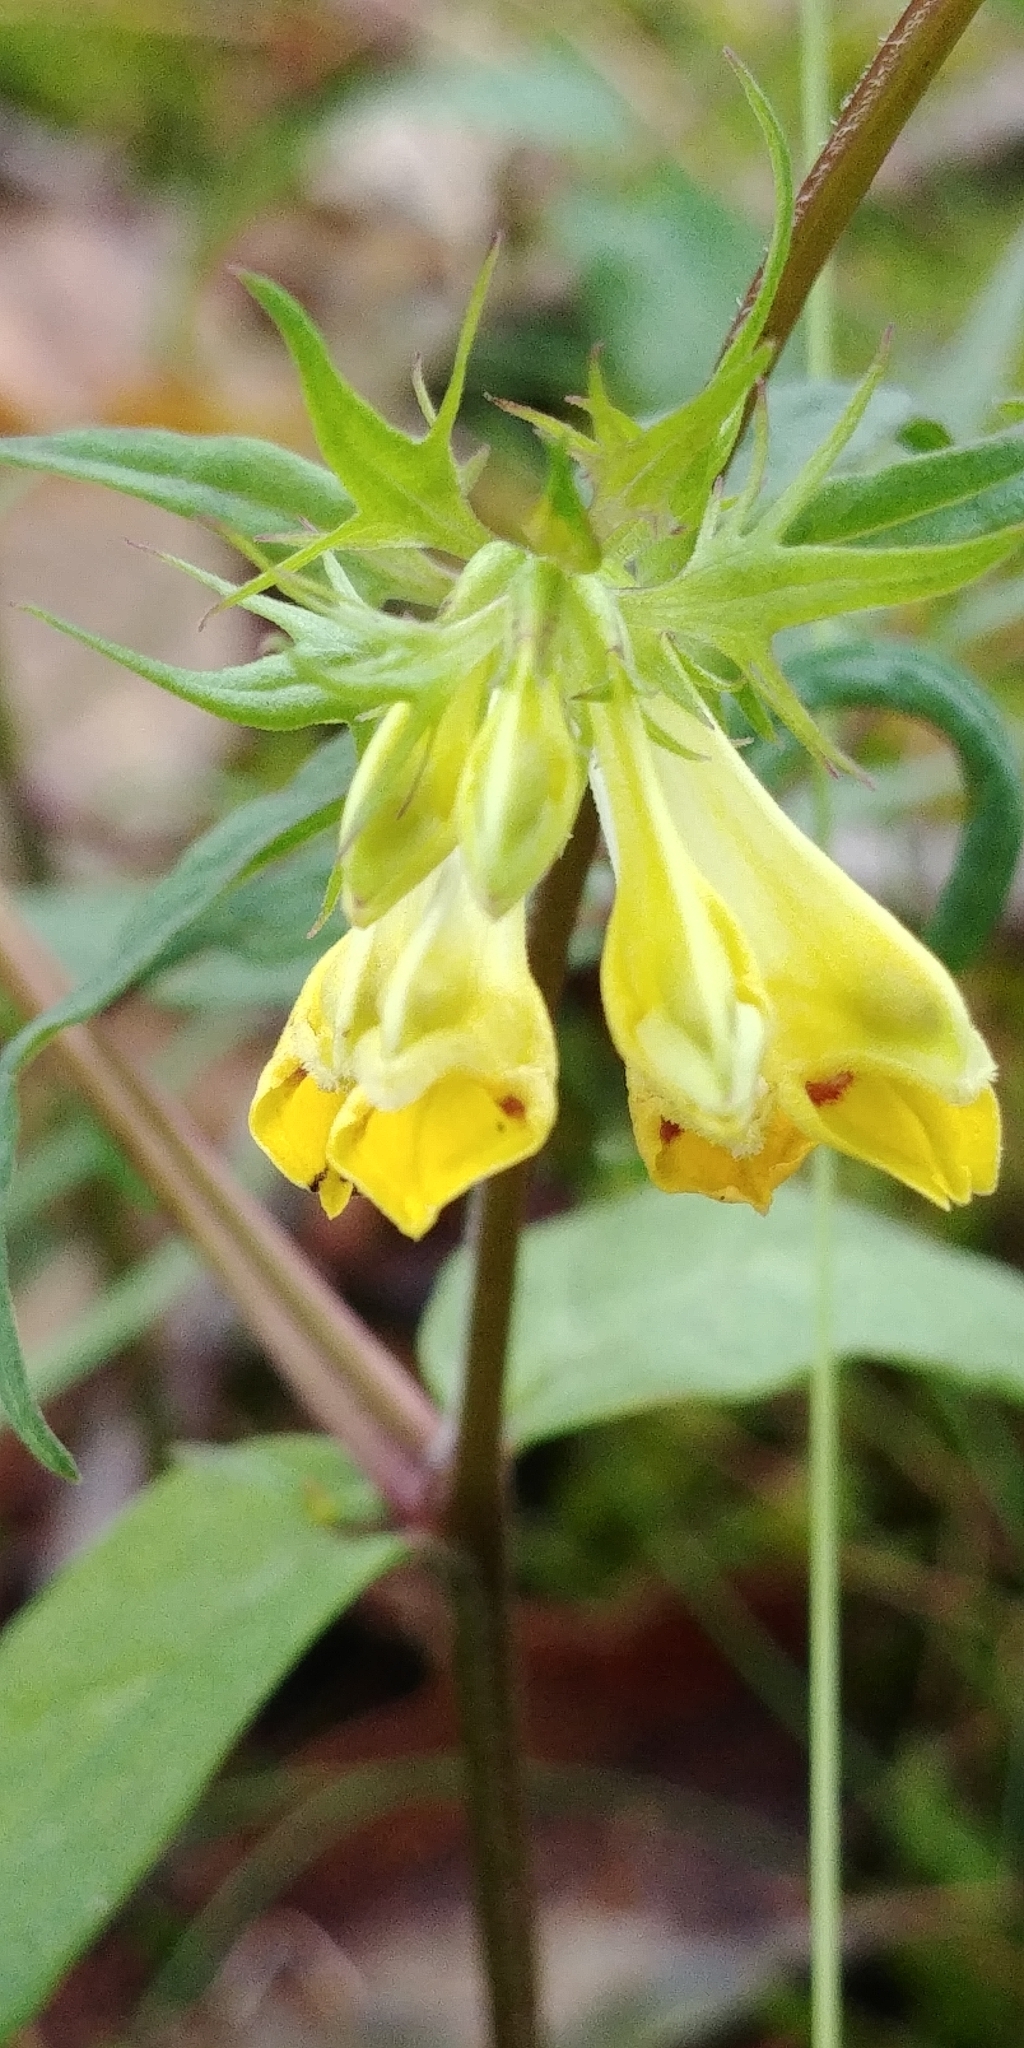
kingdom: Plantae
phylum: Tracheophyta
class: Magnoliopsida
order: Lamiales
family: Orobanchaceae
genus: Melampyrum
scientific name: Melampyrum pratense
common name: Common cow-wheat
